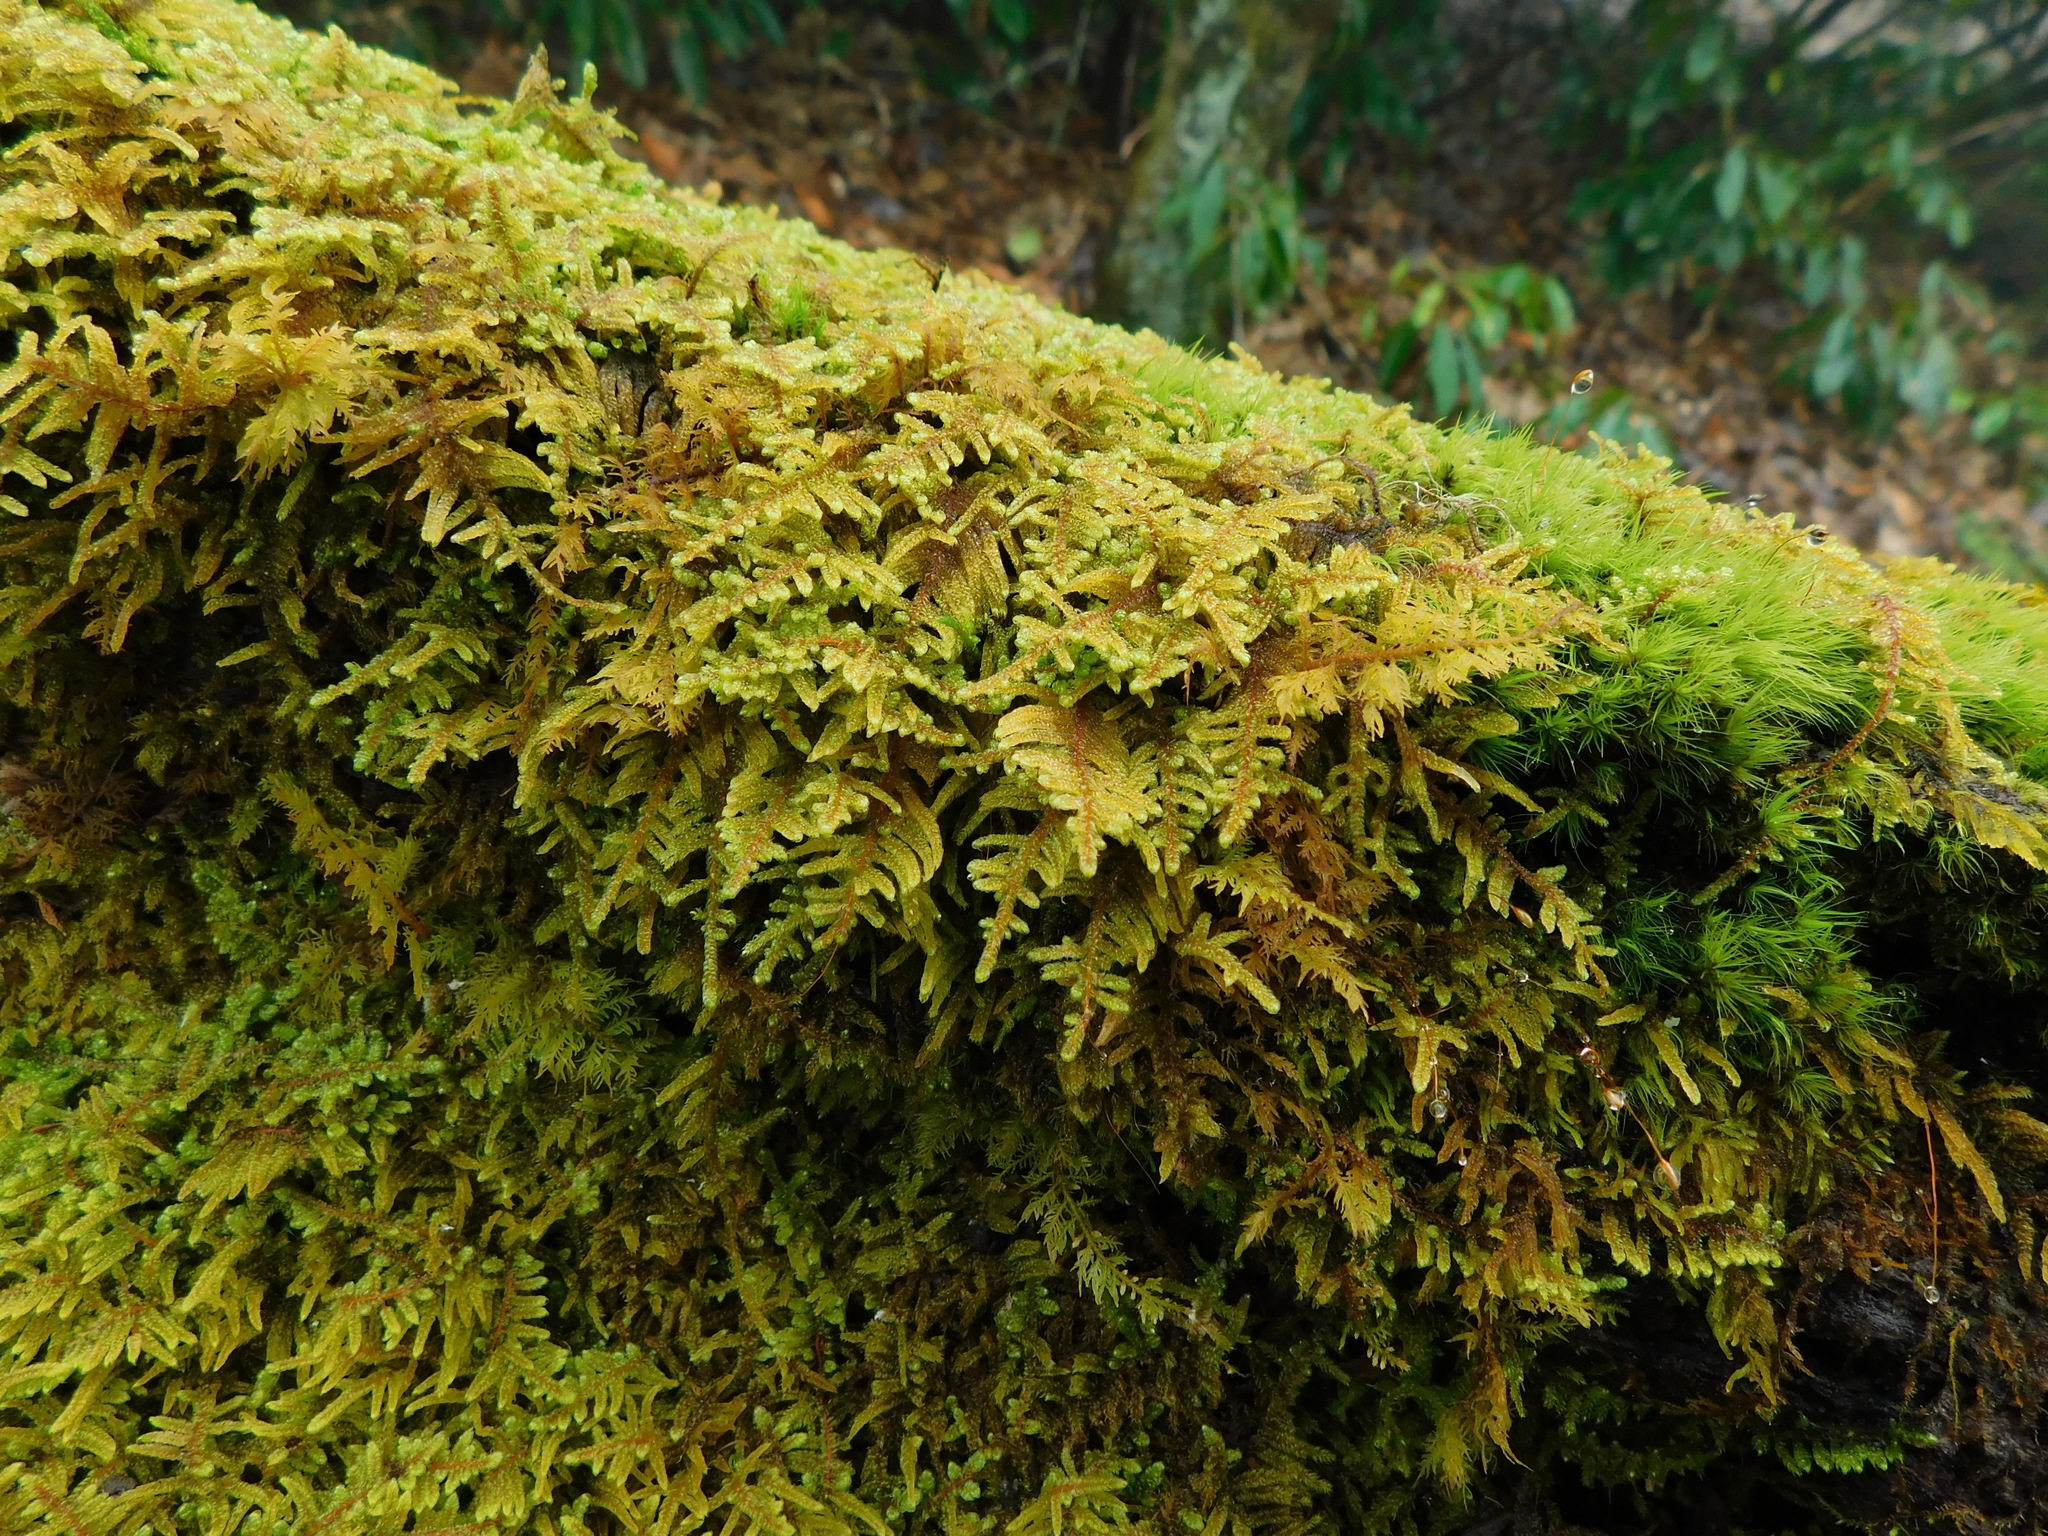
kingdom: Plantae
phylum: Bryophyta
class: Bryopsida
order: Hypnales
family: Callicladiaceae
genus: Callicladium
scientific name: Callicladium imponens
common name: Brocade moss
